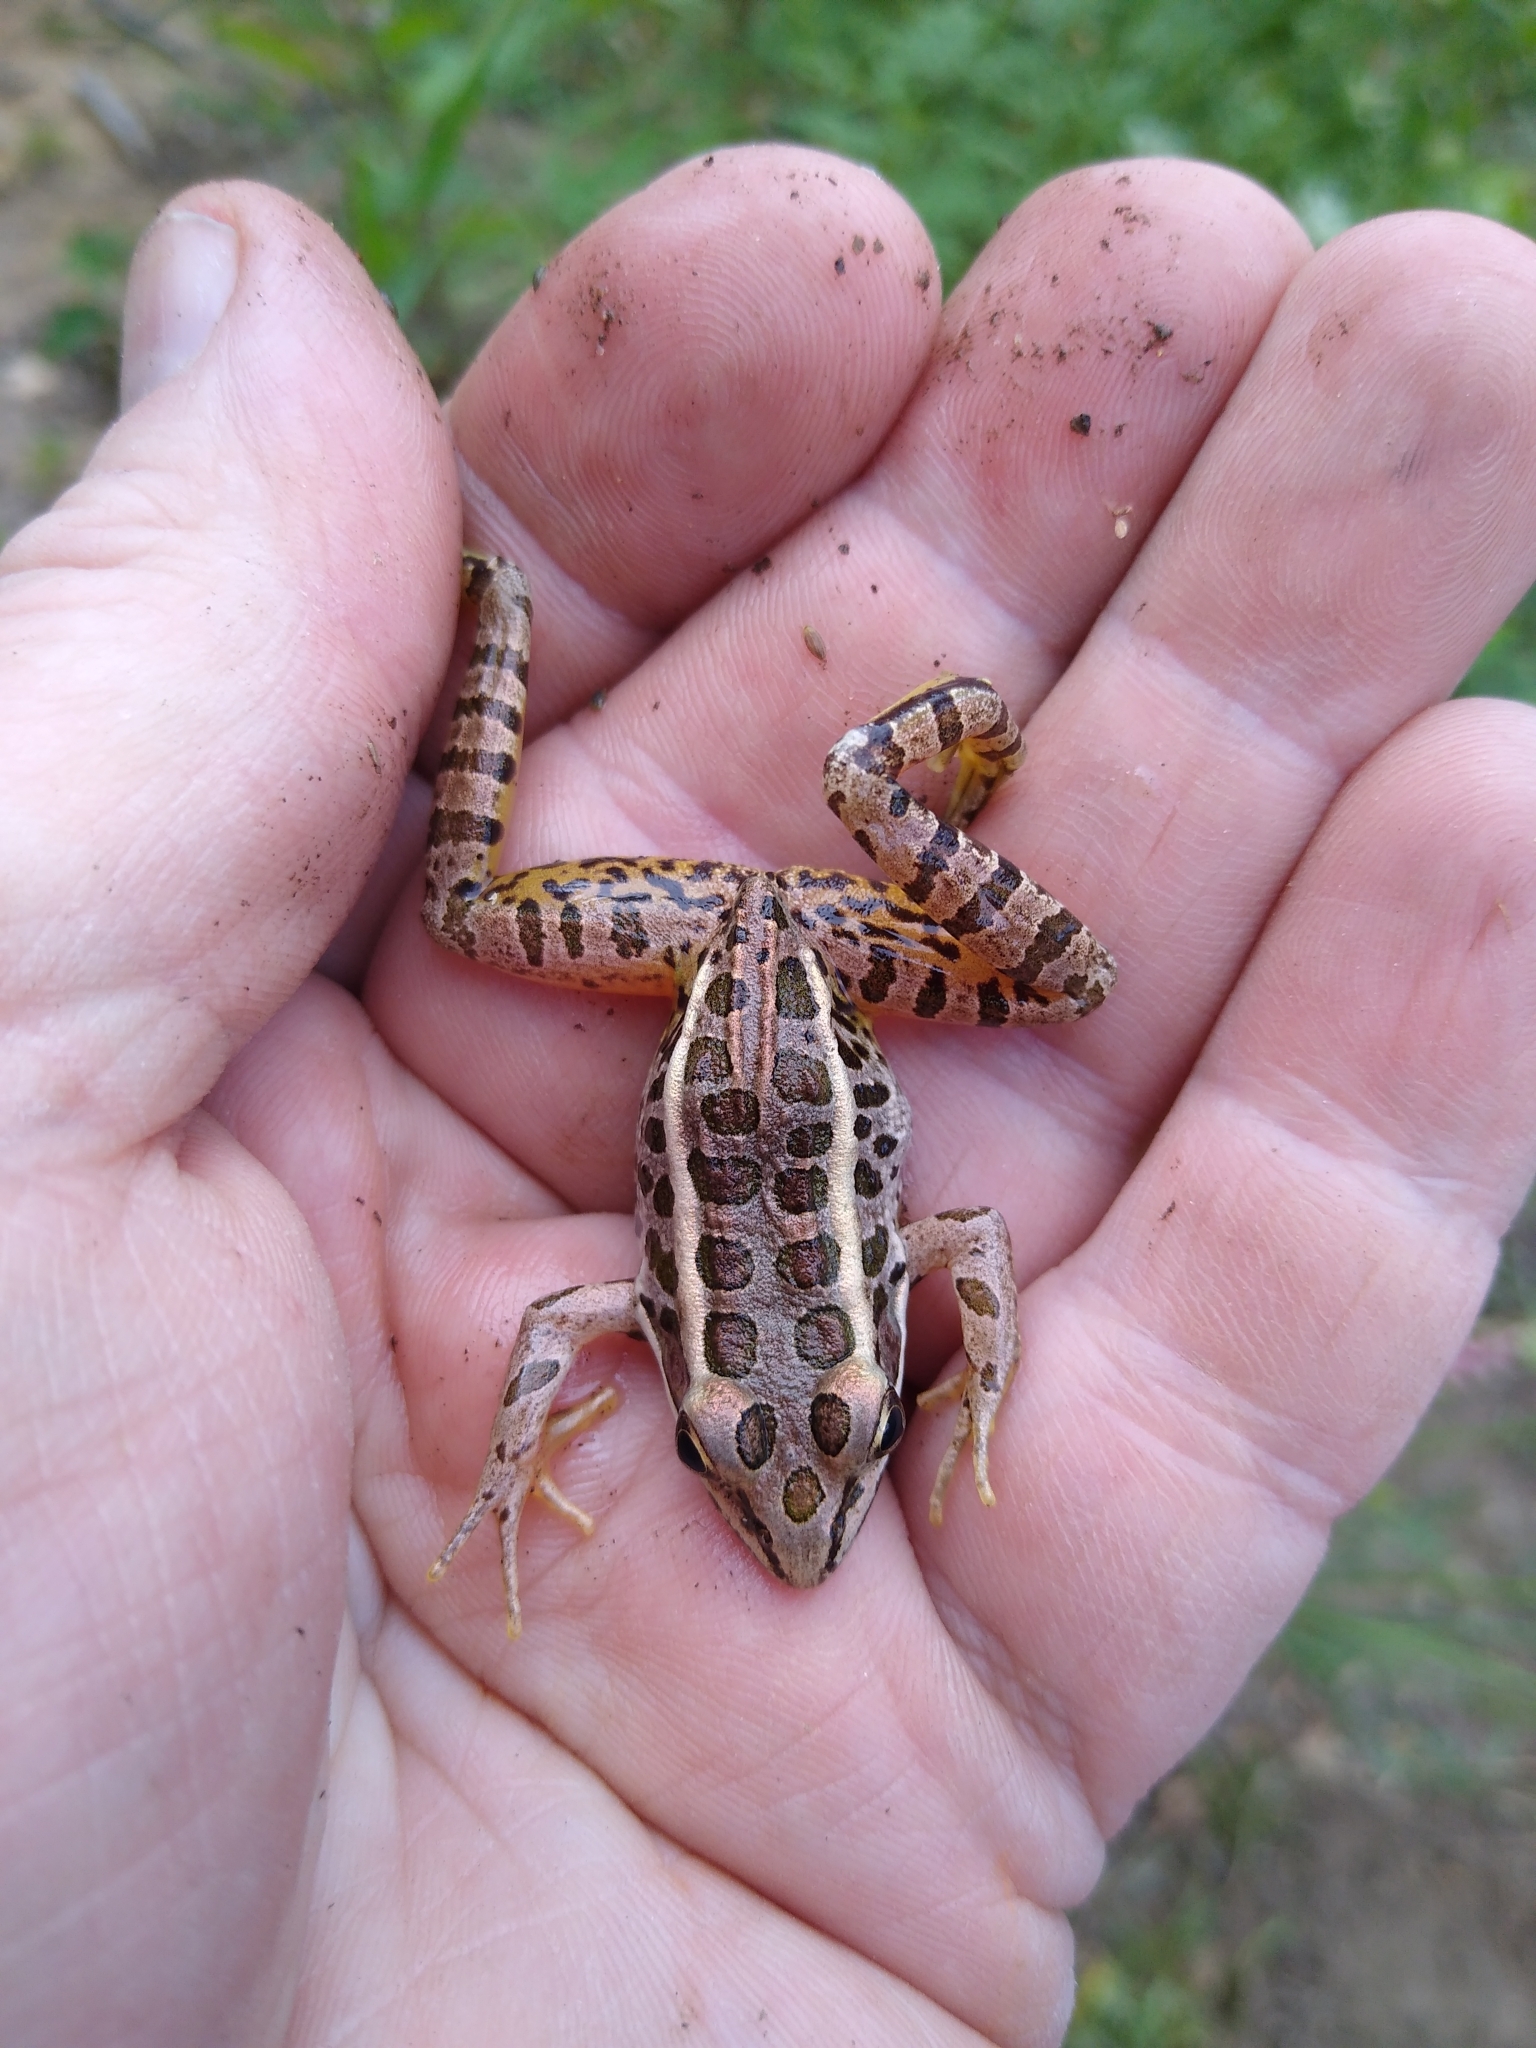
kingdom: Animalia
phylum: Chordata
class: Amphibia
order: Anura
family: Ranidae
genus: Lithobates
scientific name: Lithobates palustris
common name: Pickerel frog
